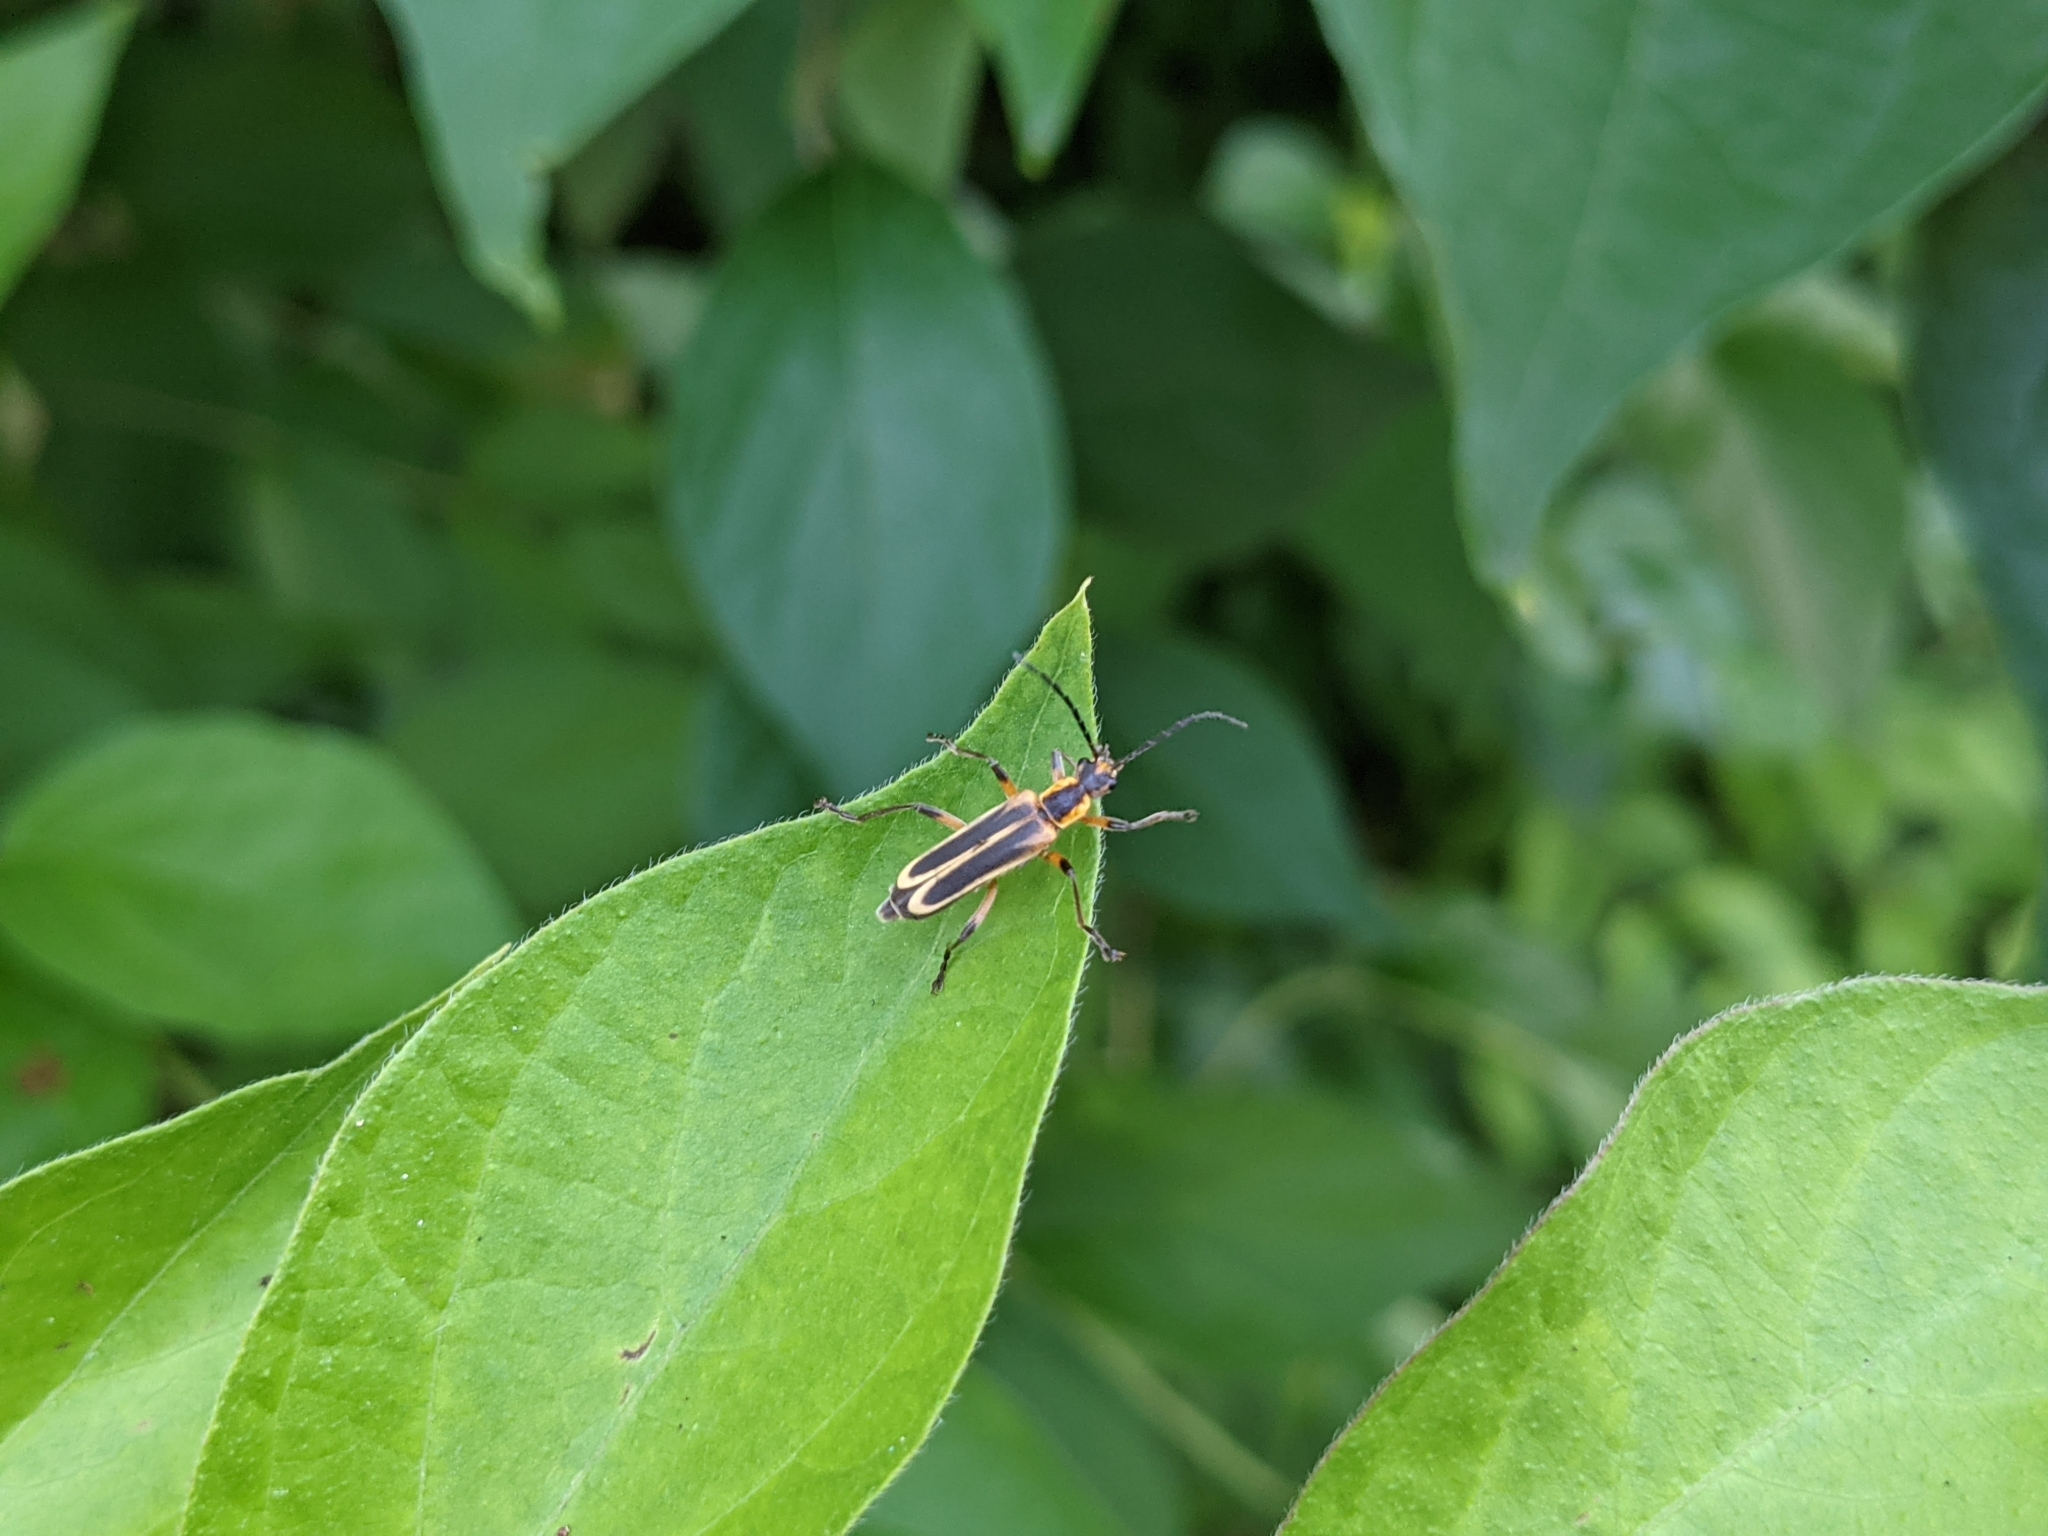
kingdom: Animalia
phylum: Arthropoda
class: Insecta
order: Coleoptera
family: Cantharidae
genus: Chauliognathus
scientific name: Chauliognathus marginatus
